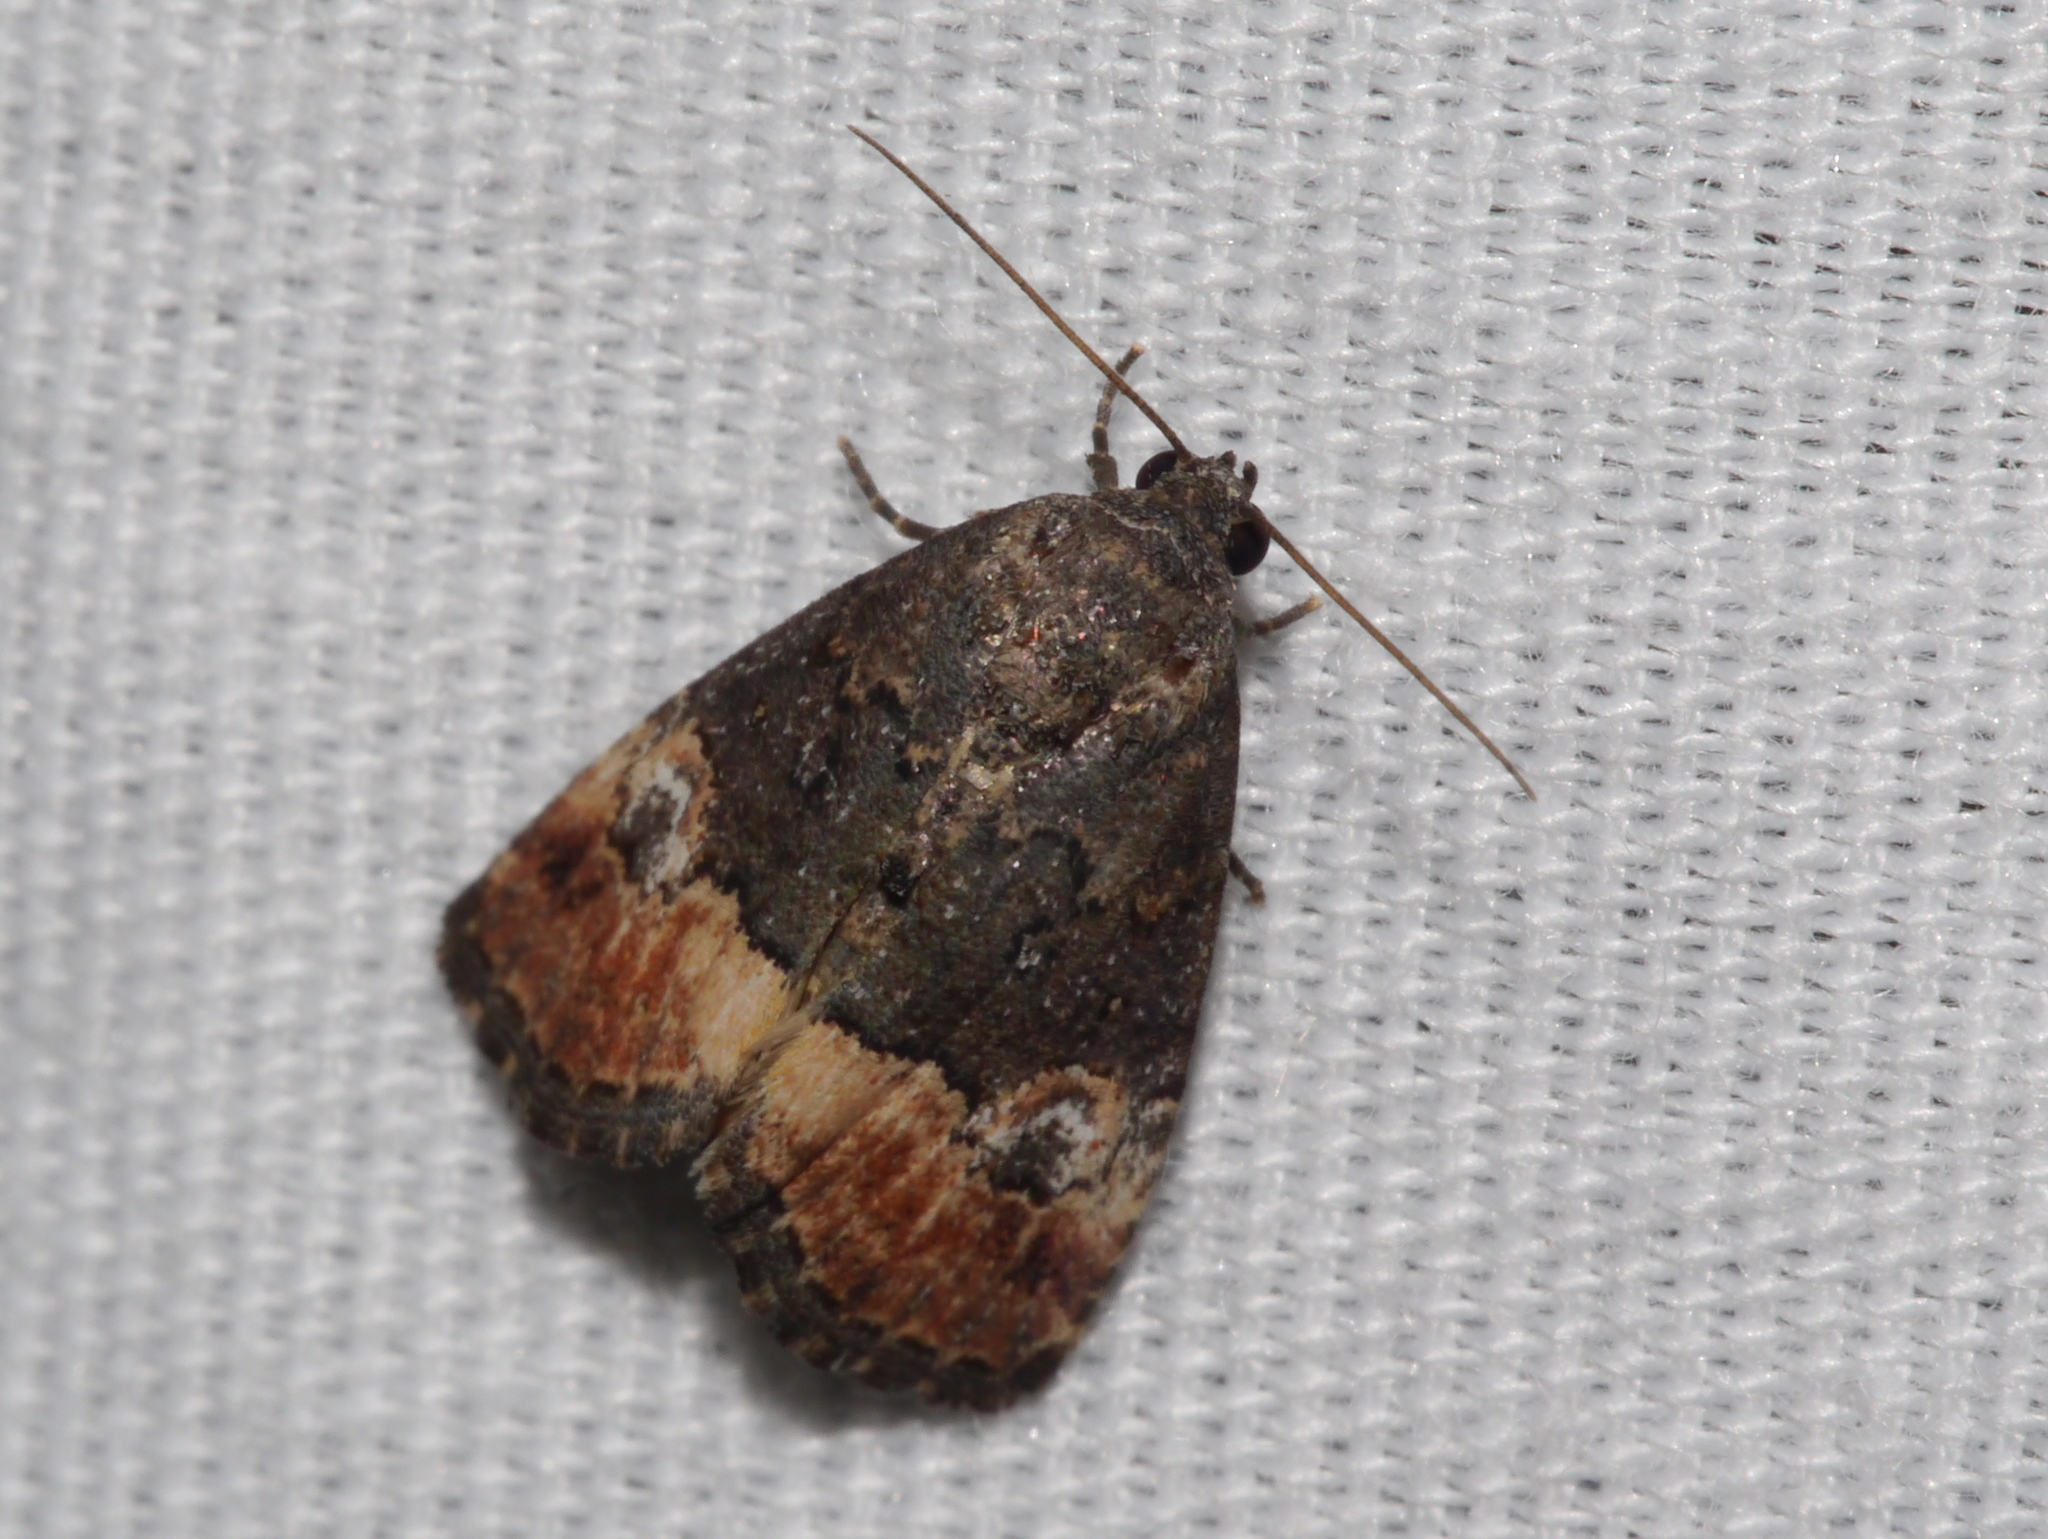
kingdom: Animalia
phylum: Arthropoda
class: Insecta
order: Lepidoptera
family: Noctuidae
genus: Ozarba
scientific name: Ozarba propera
